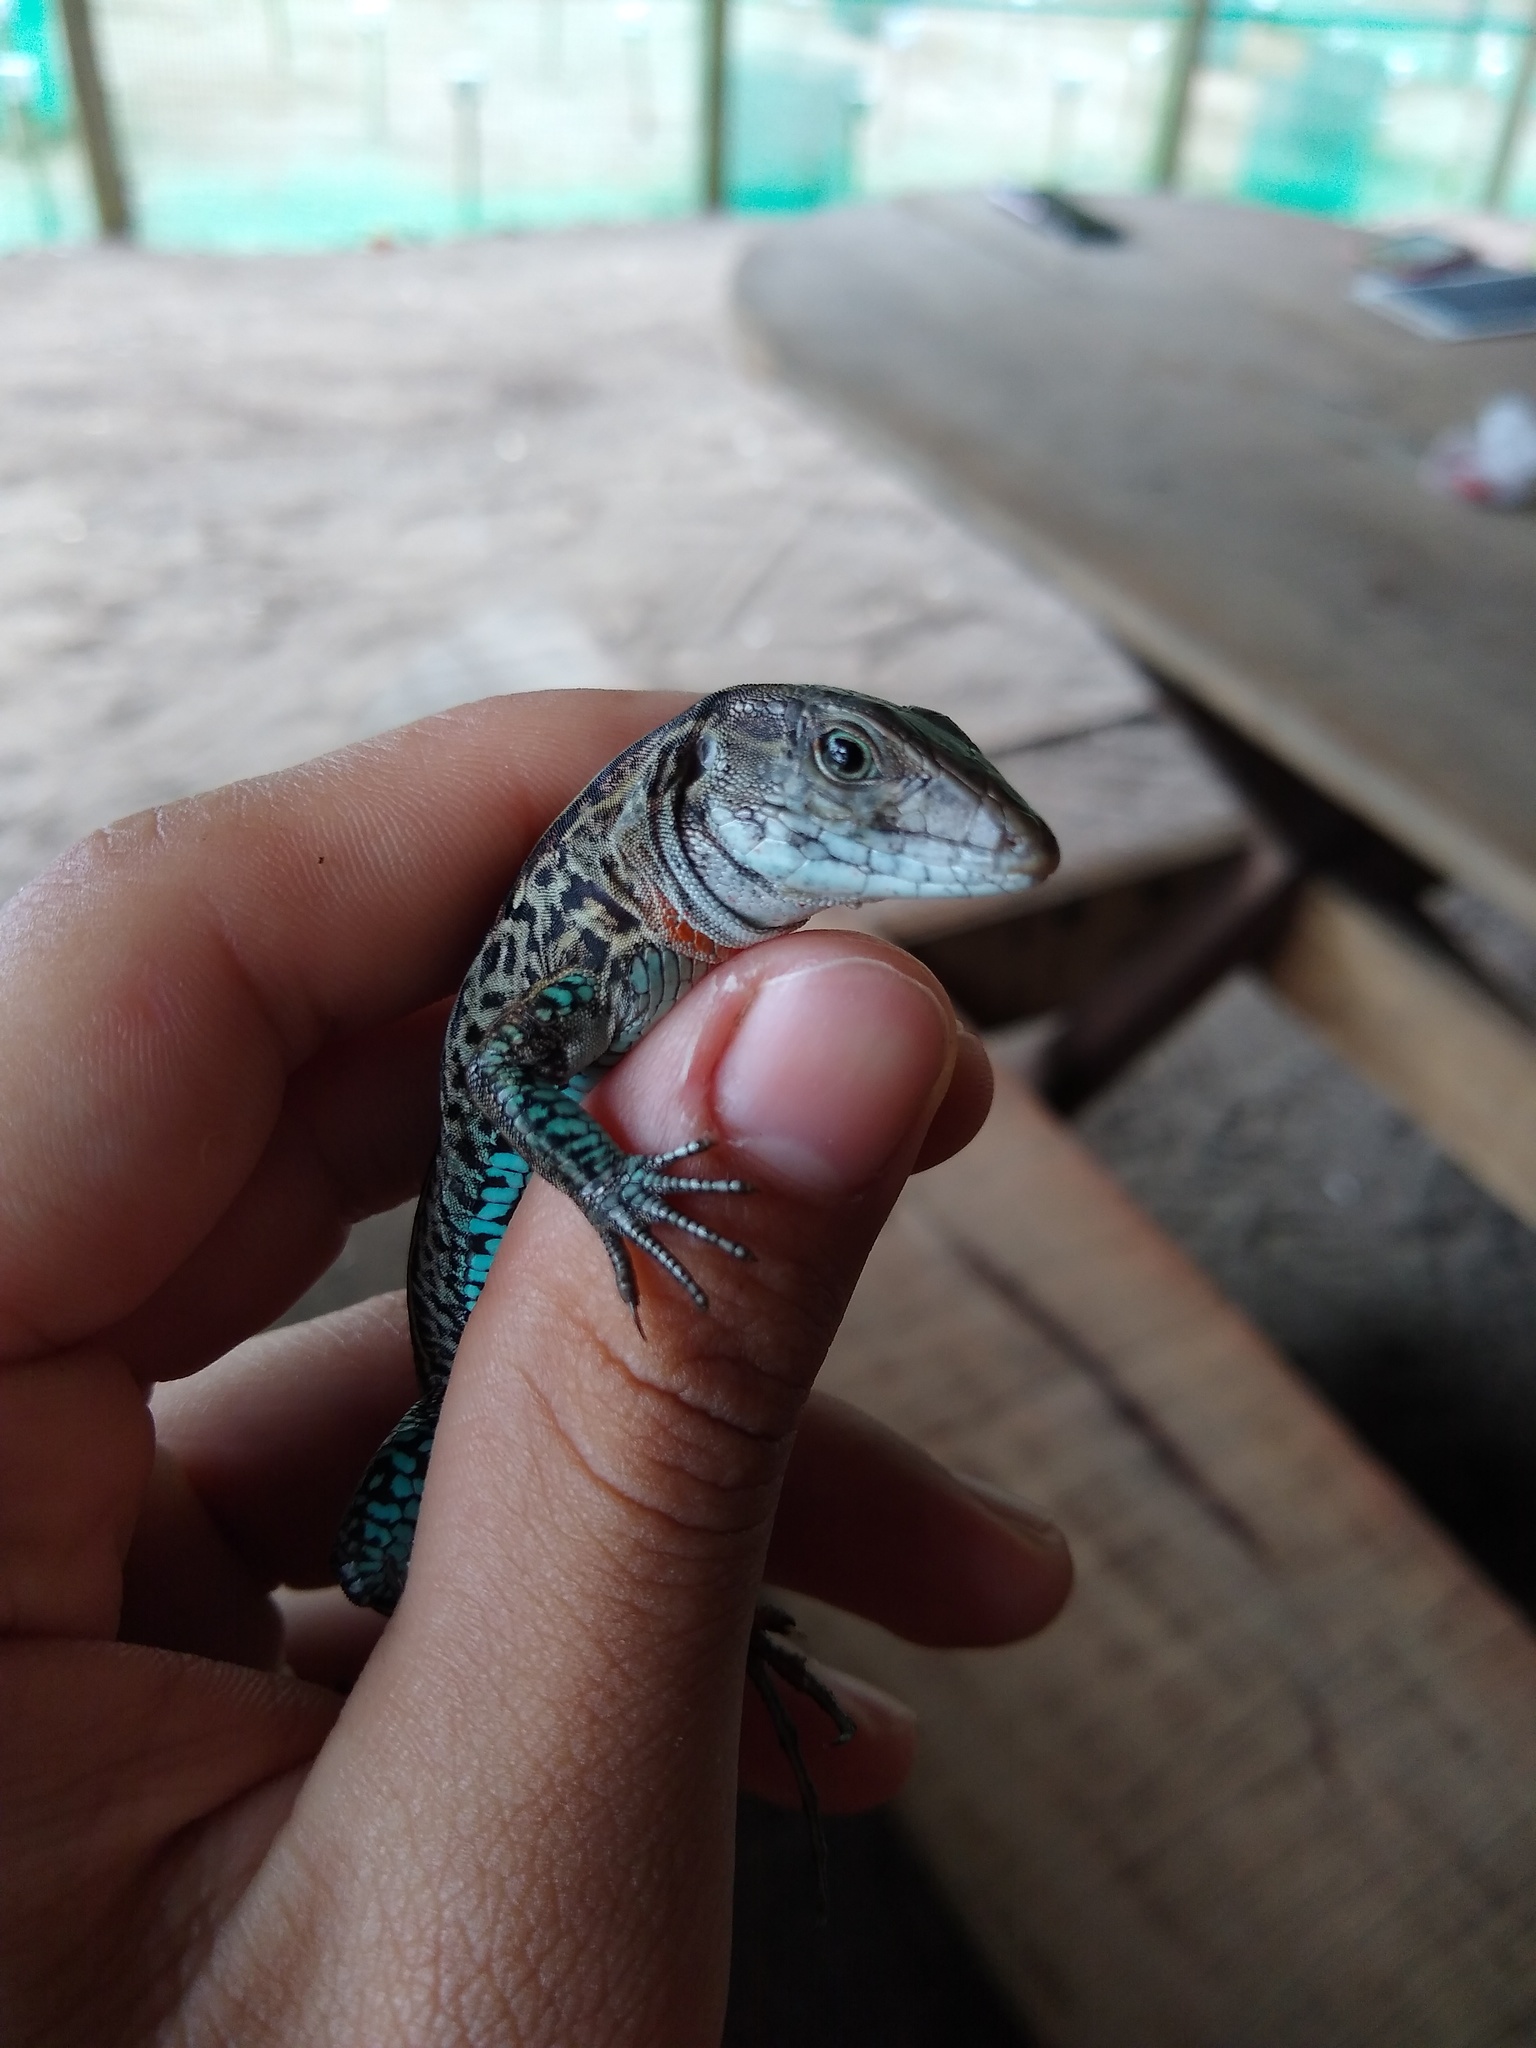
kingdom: Animalia
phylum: Chordata
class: Squamata
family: Teiidae
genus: Holcosus
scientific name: Holcosus quadrilineatus
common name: Four-lined ameiva
